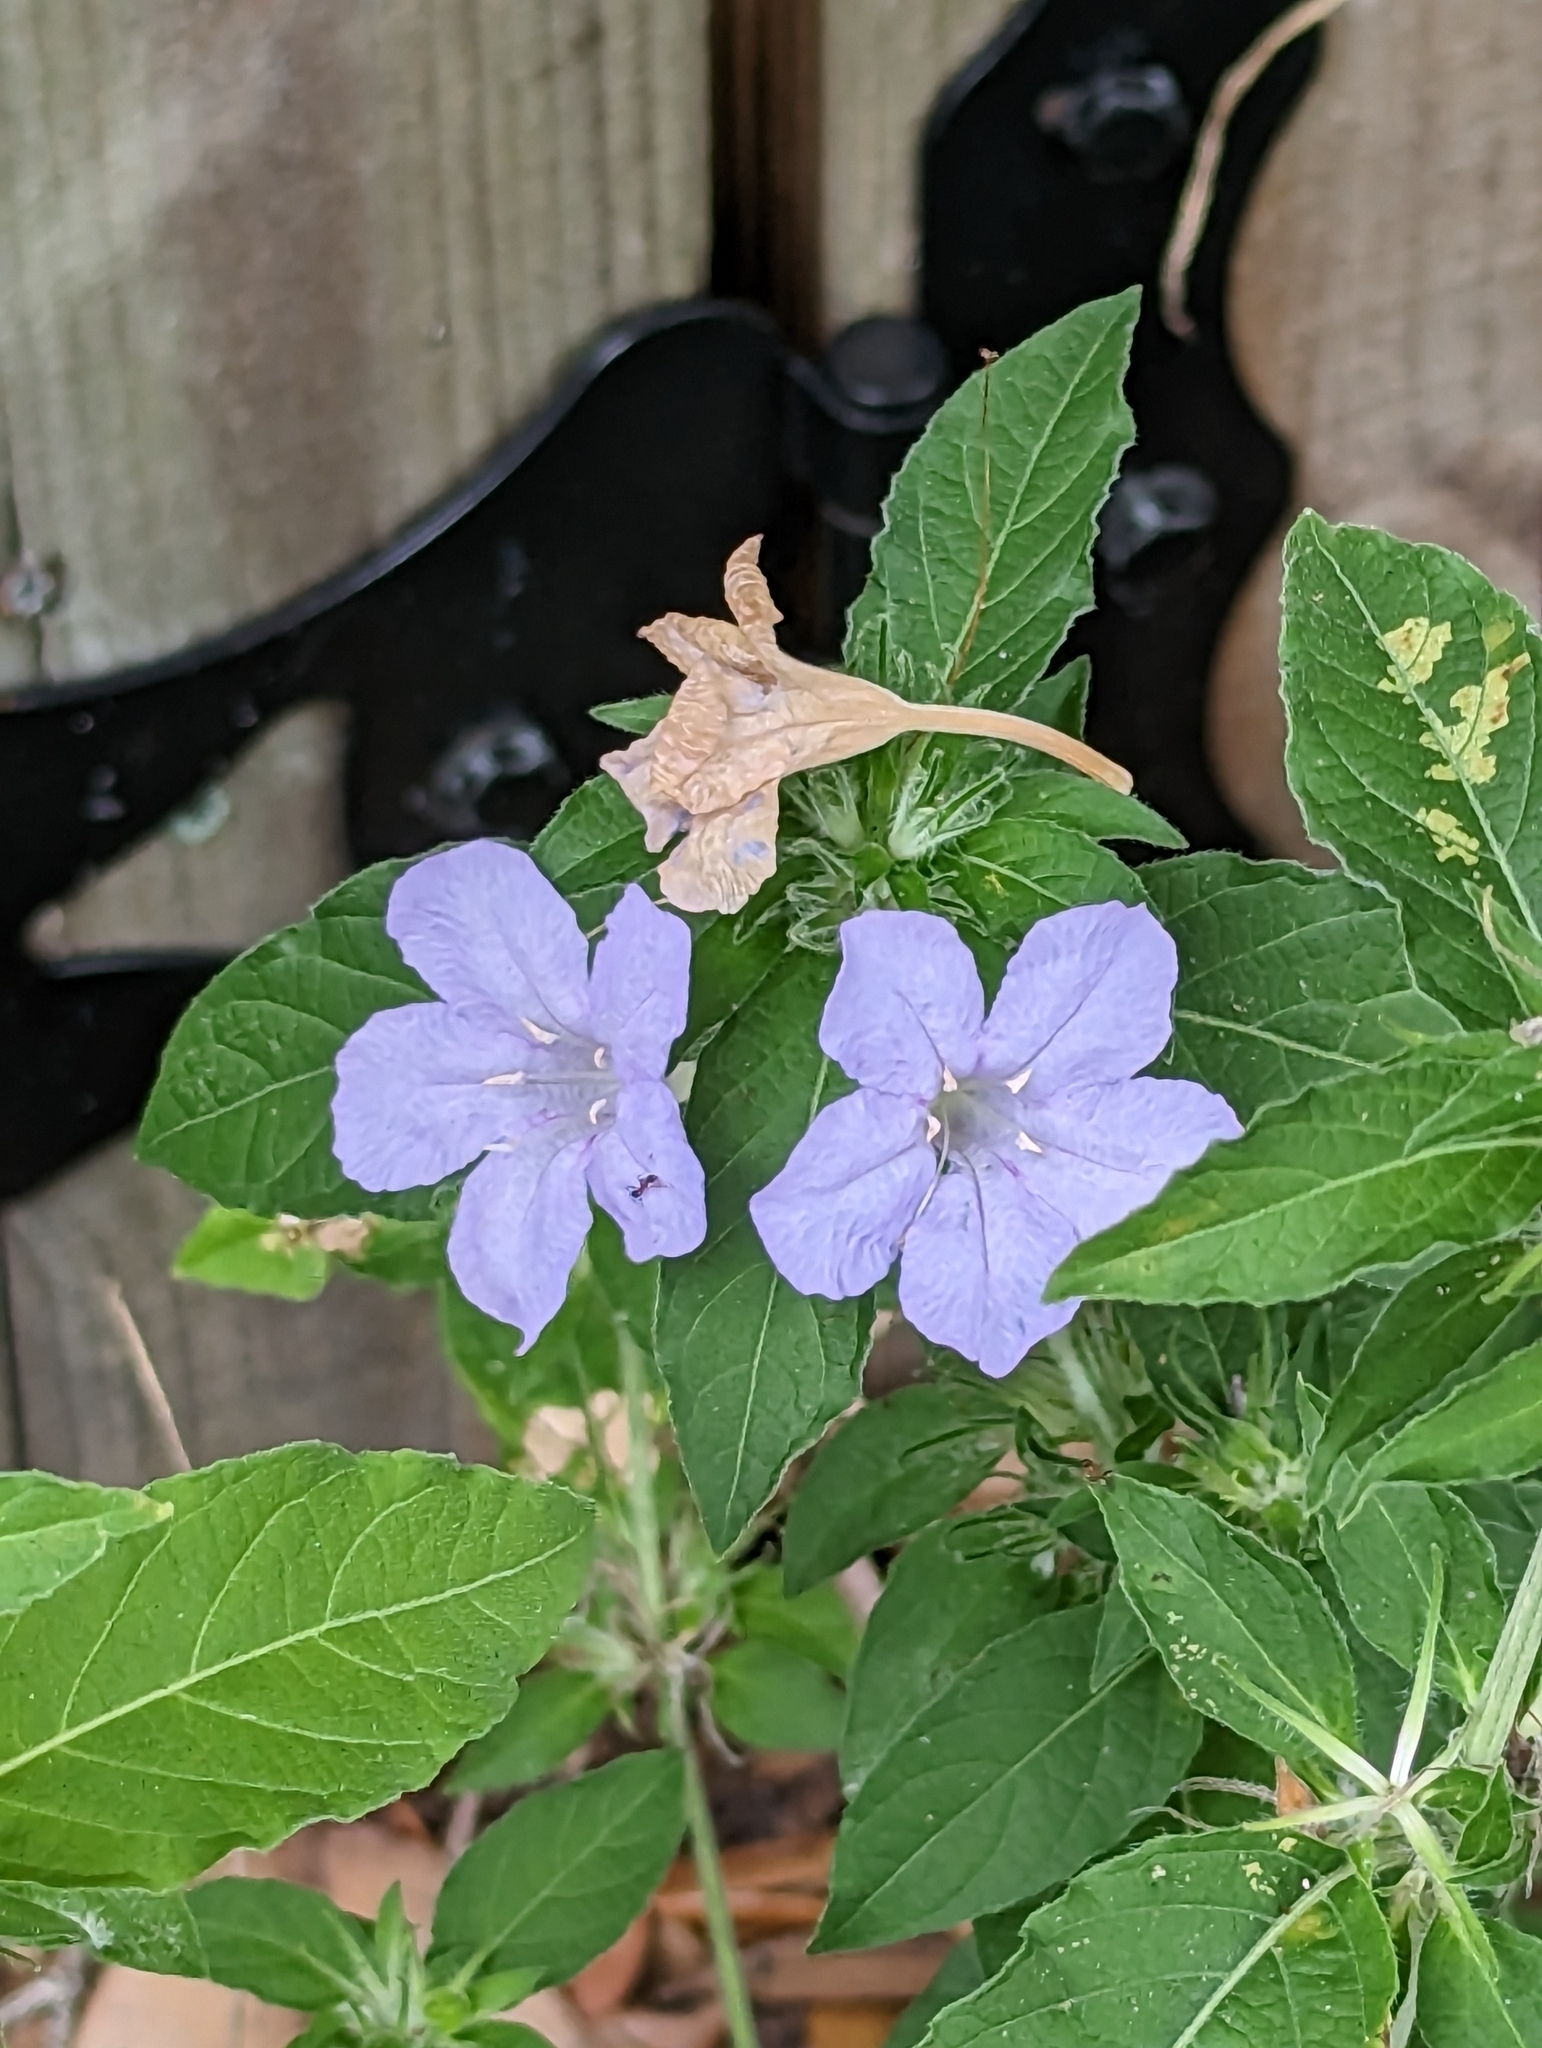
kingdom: Plantae
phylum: Tracheophyta
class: Magnoliopsida
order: Lamiales
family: Acanthaceae
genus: Ruellia
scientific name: Ruellia caroliniensis
